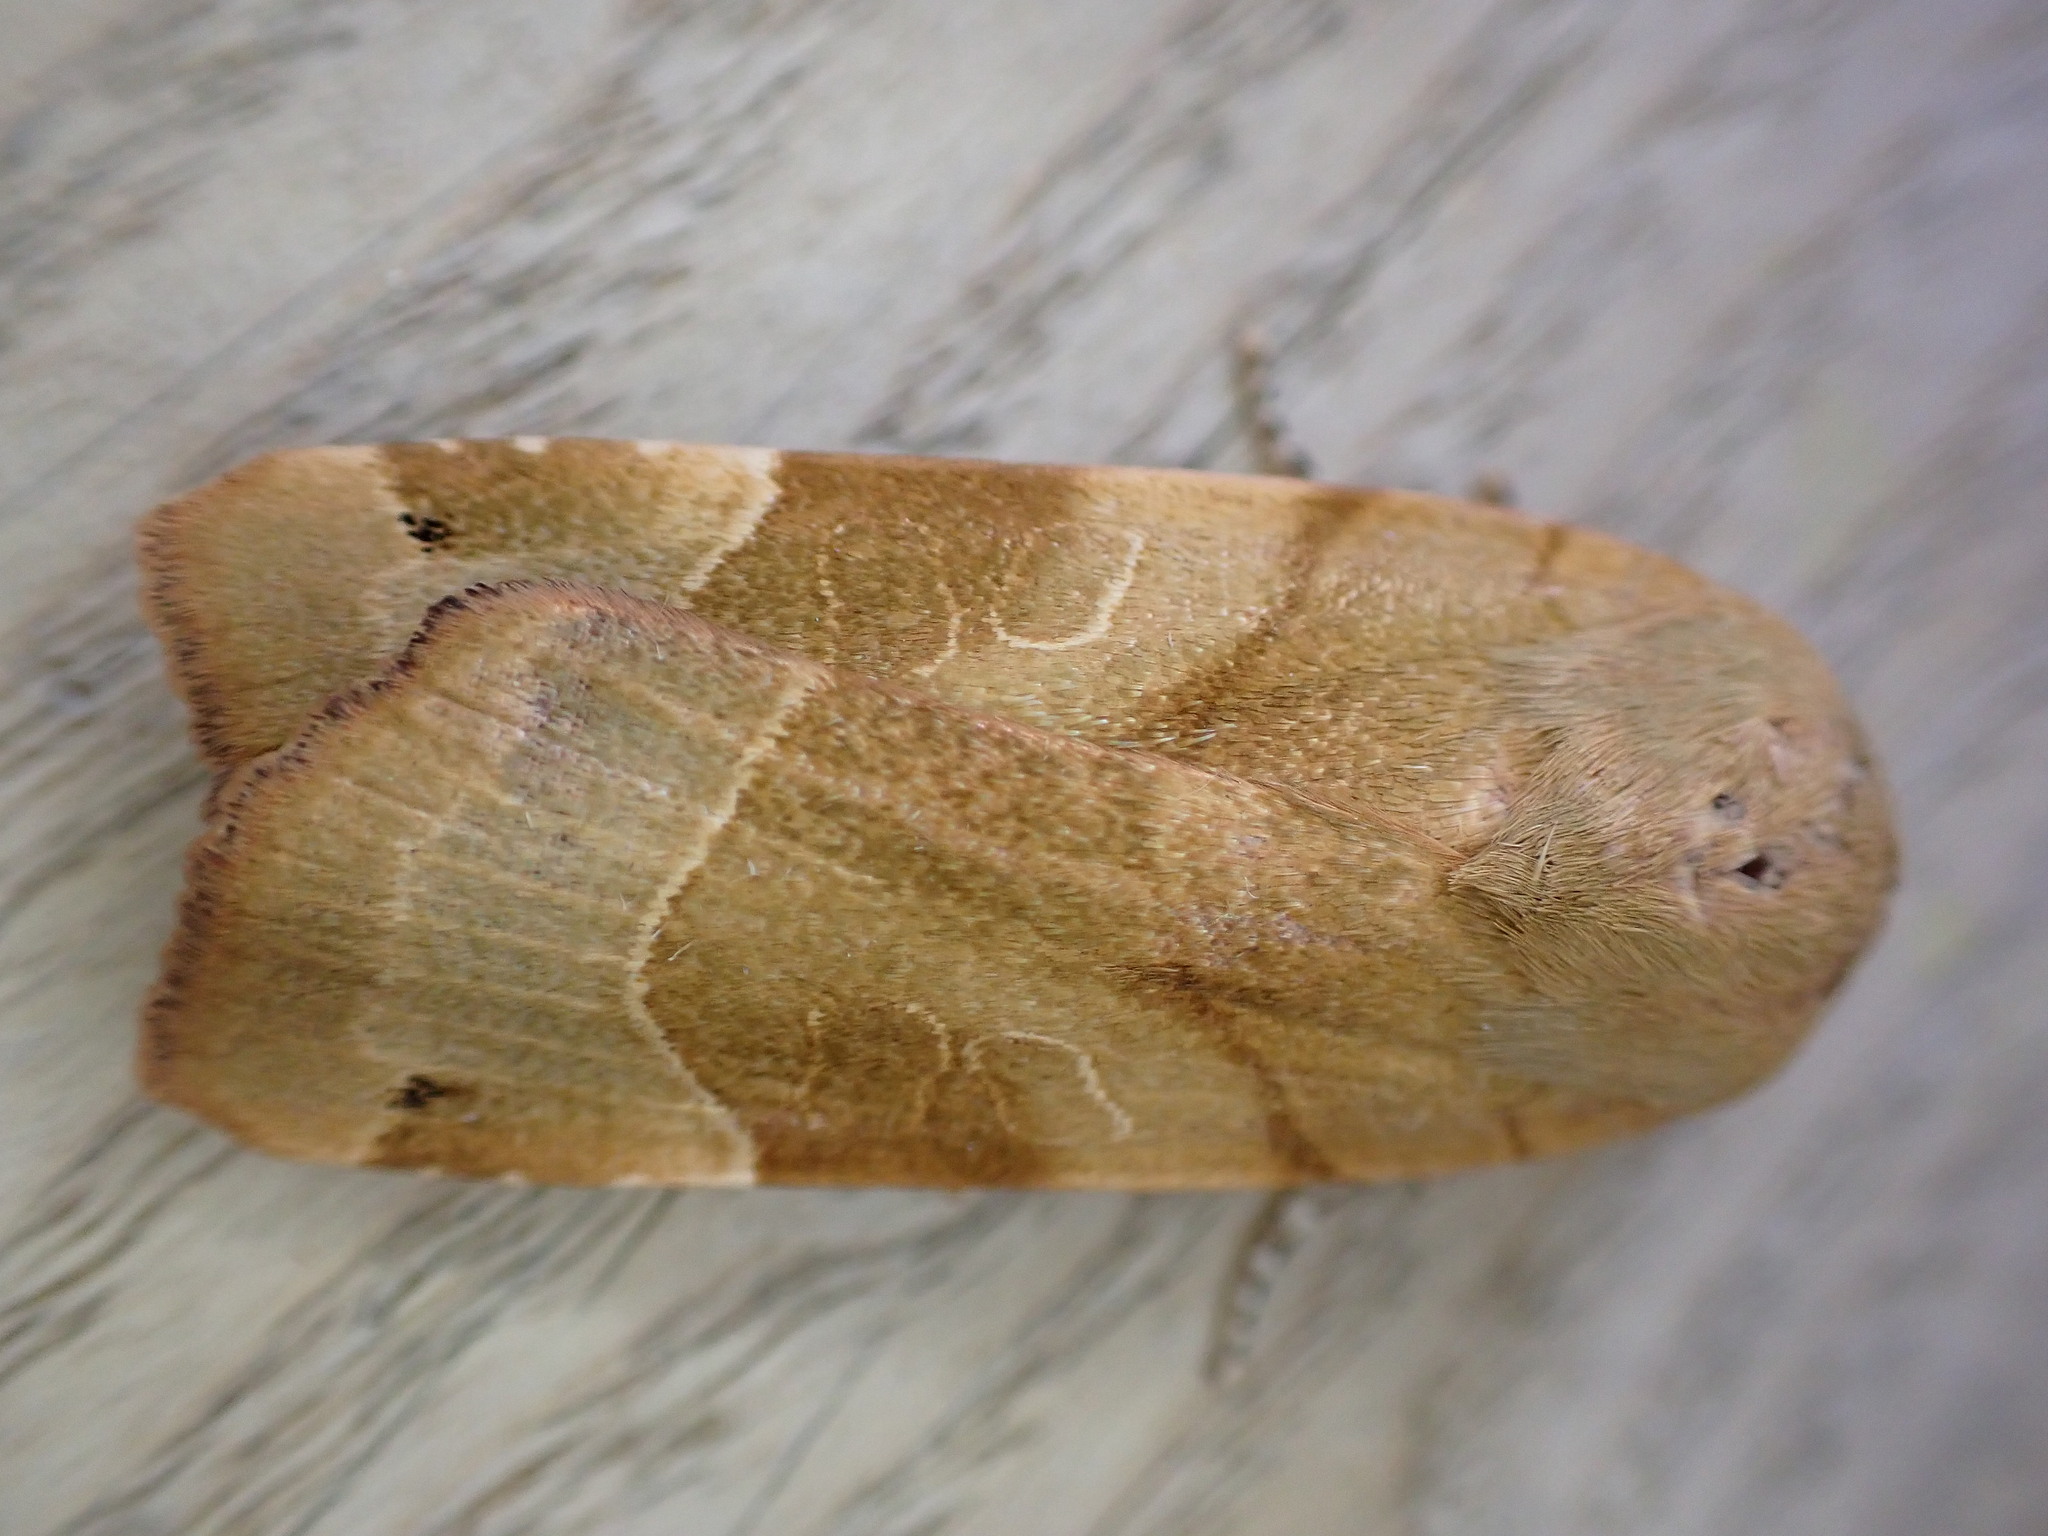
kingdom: Animalia
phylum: Arthropoda
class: Insecta
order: Lepidoptera
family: Noctuidae
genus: Noctua
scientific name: Noctua fimbriata
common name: Broad-bordered yellow underwing
